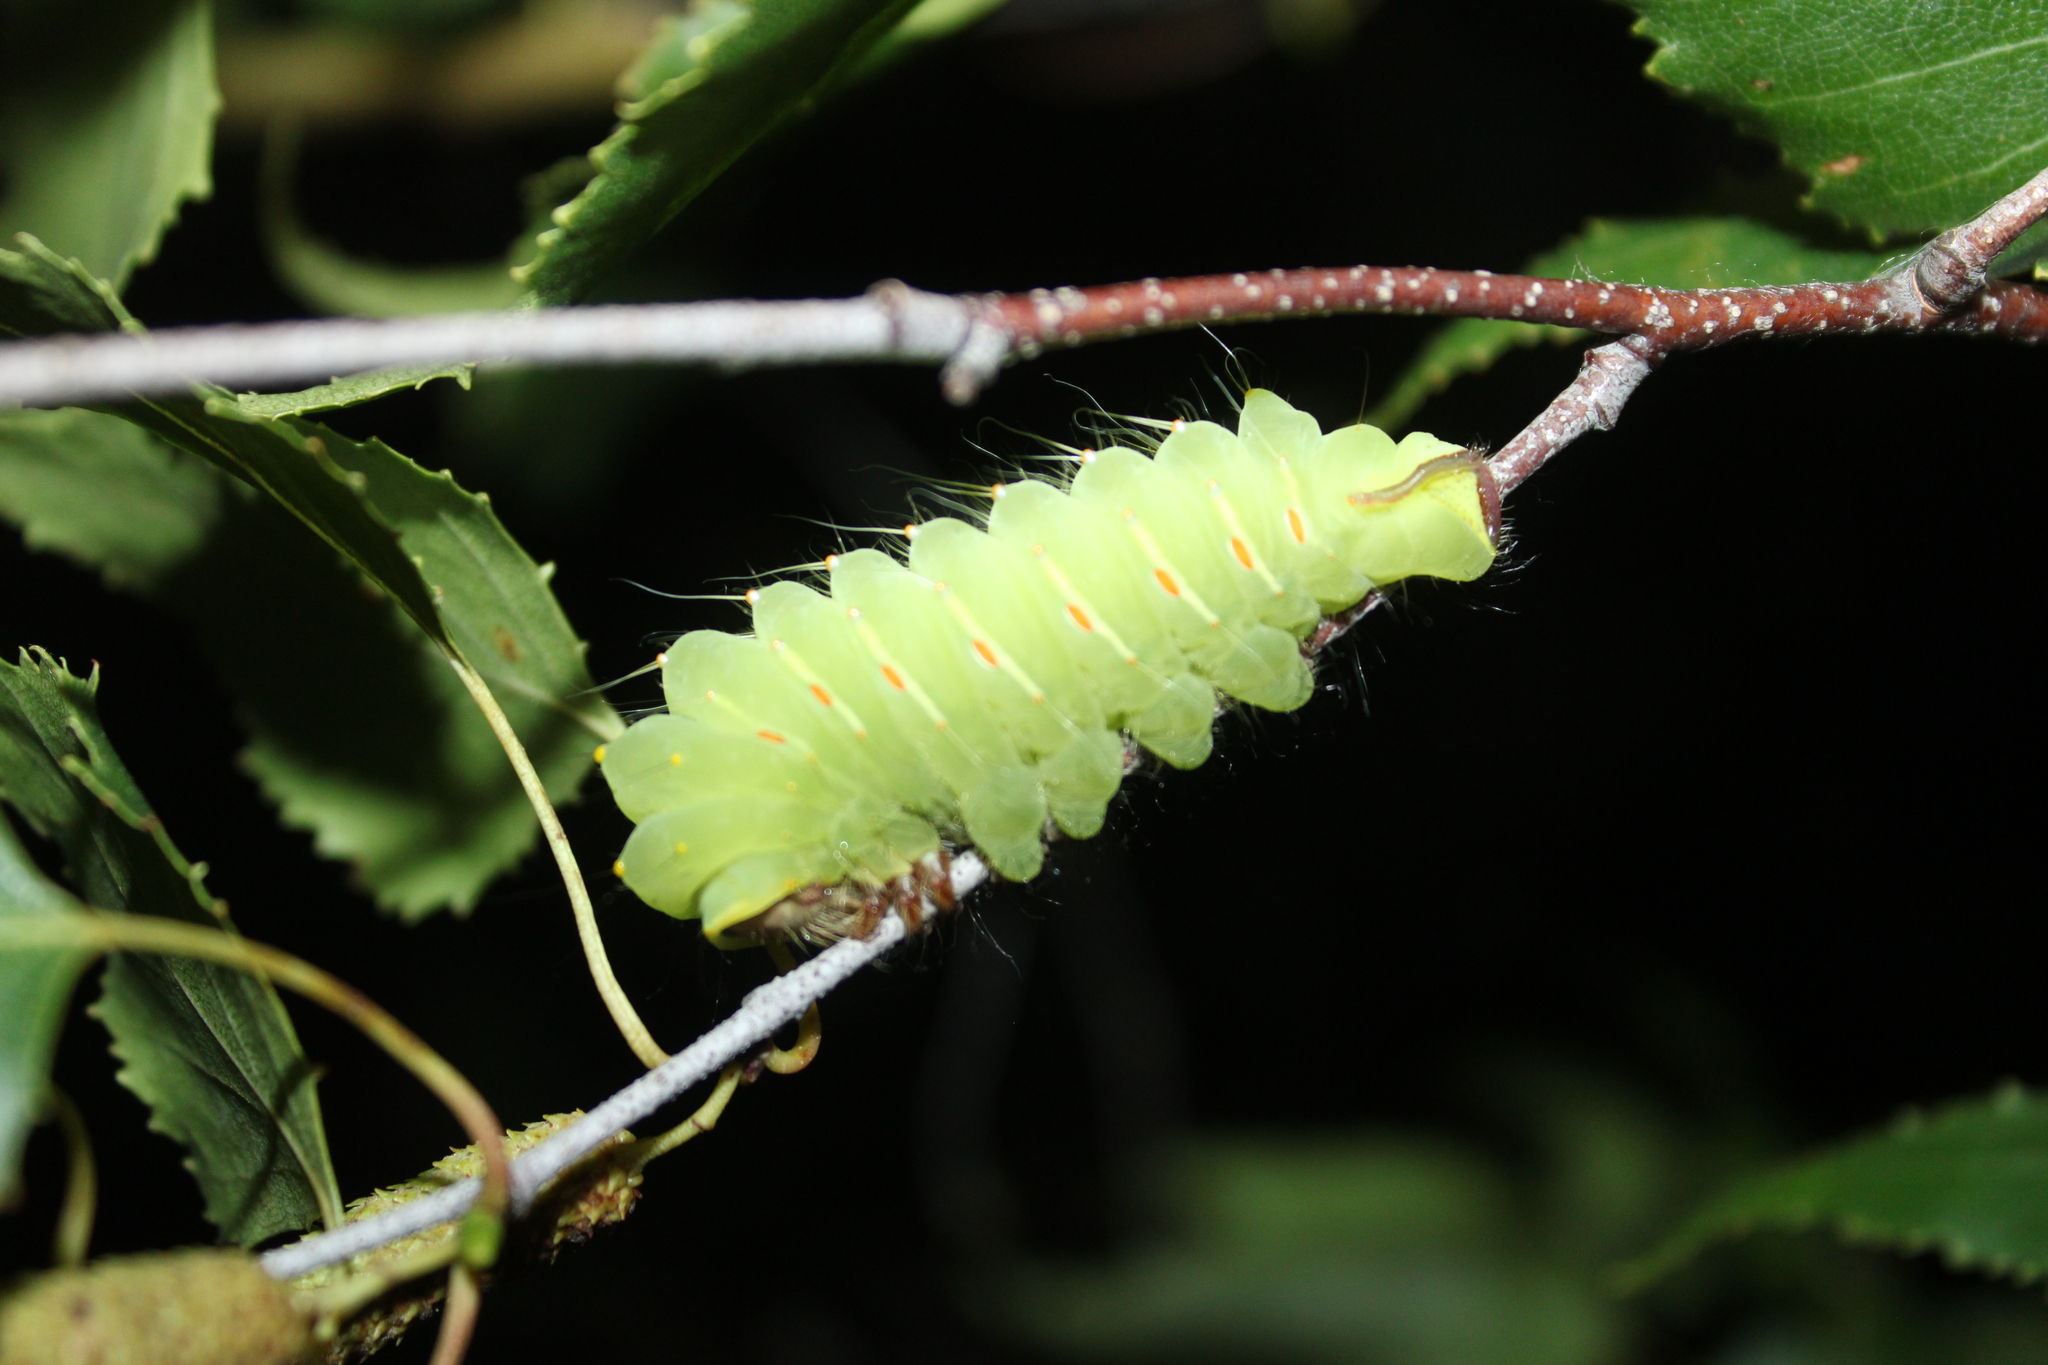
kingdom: Animalia
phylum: Arthropoda
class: Insecta
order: Lepidoptera
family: Saturniidae
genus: Antheraea
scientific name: Antheraea polyphemus
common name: Polyphemus moth
